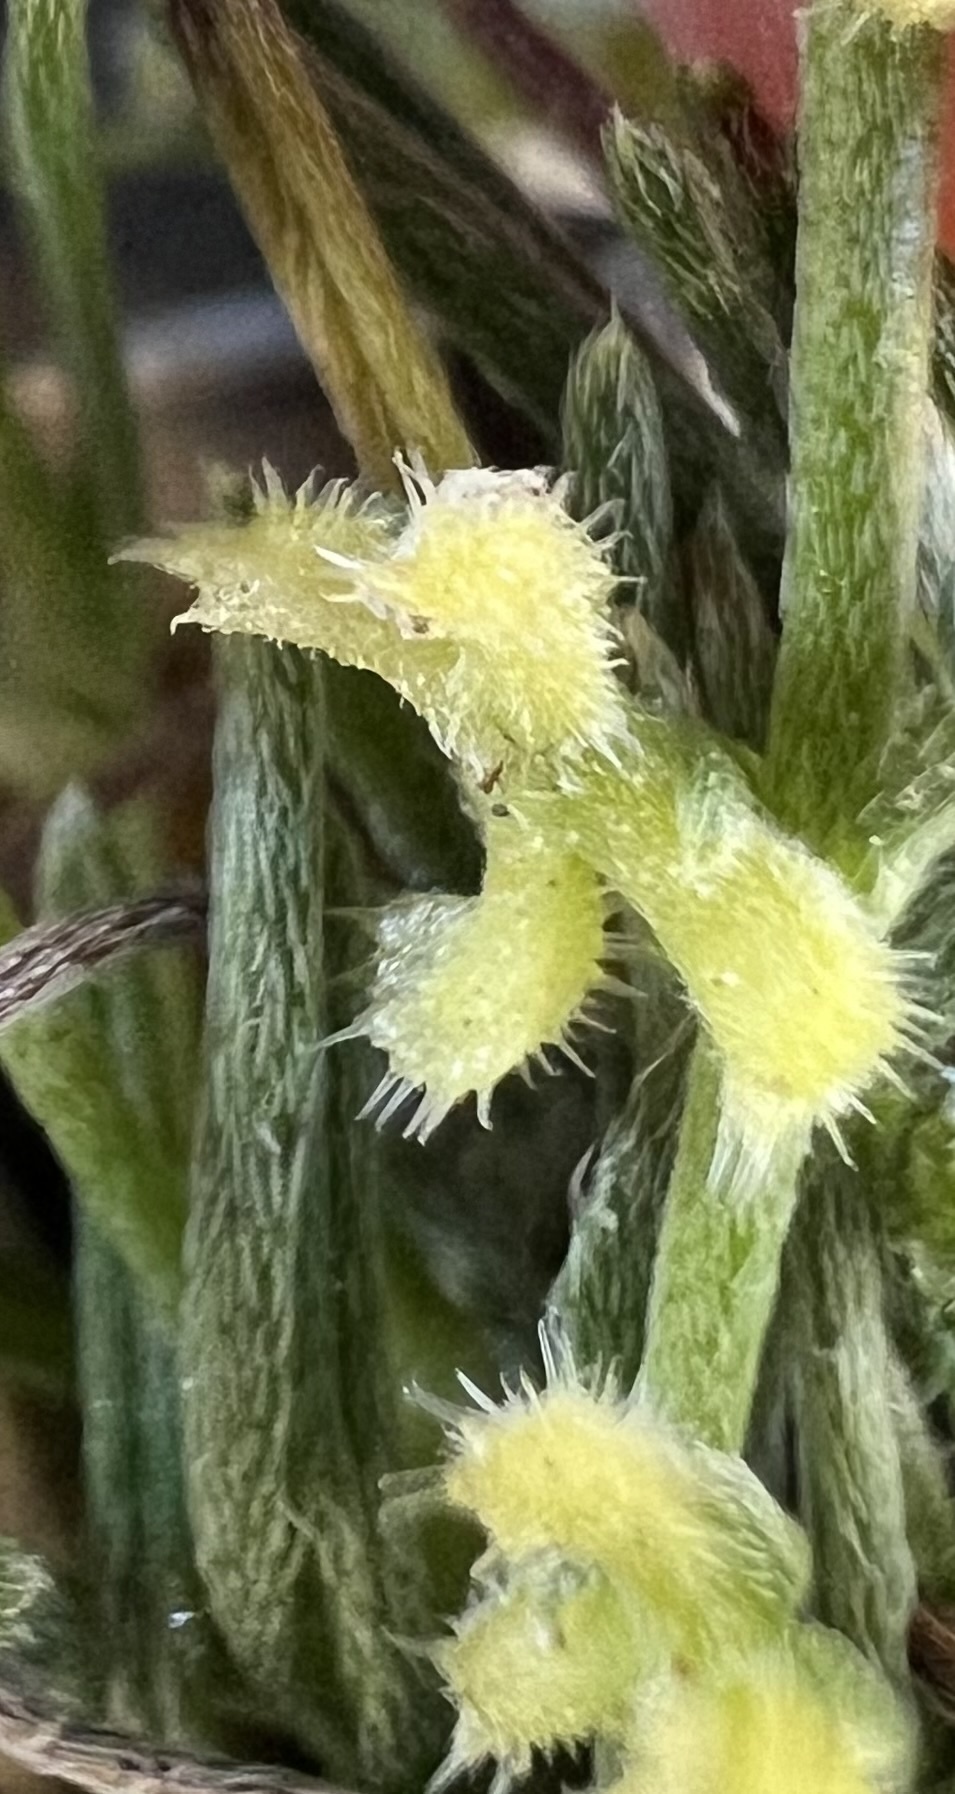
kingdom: Plantae
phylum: Tracheophyta
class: Magnoliopsida
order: Boraginales
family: Boraginaceae
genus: Pectocarya
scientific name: Pectocarya penicillata
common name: Short-leaved combseed
